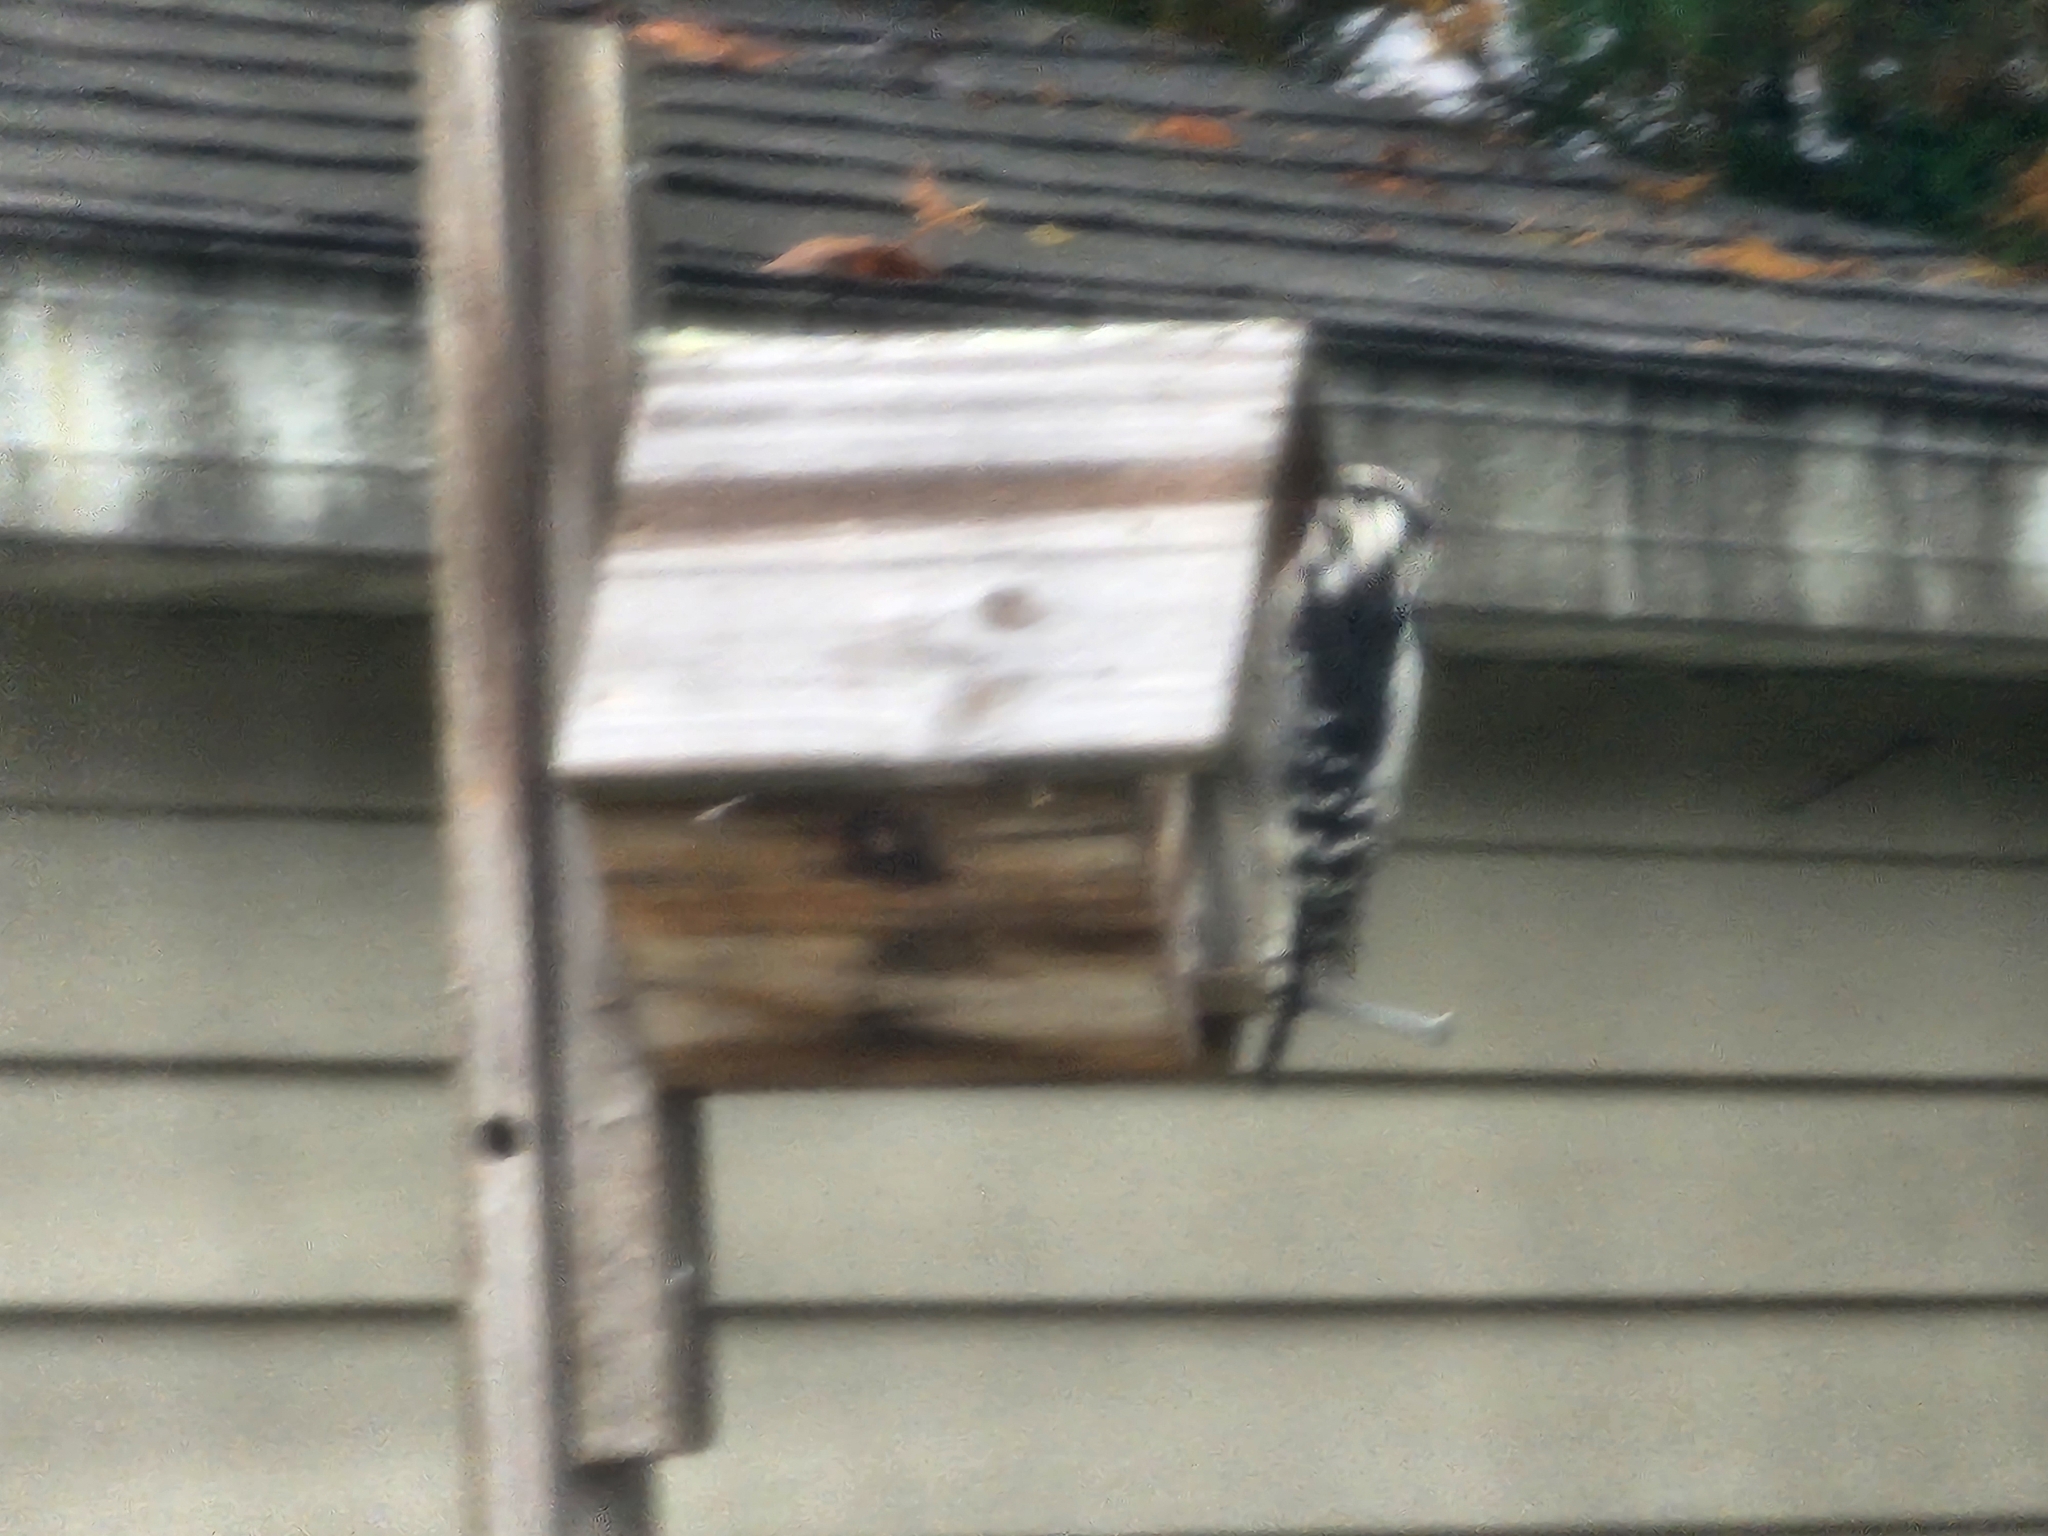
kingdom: Animalia
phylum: Chordata
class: Aves
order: Piciformes
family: Picidae
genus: Dryobates
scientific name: Dryobates pubescens
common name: Downy woodpecker
